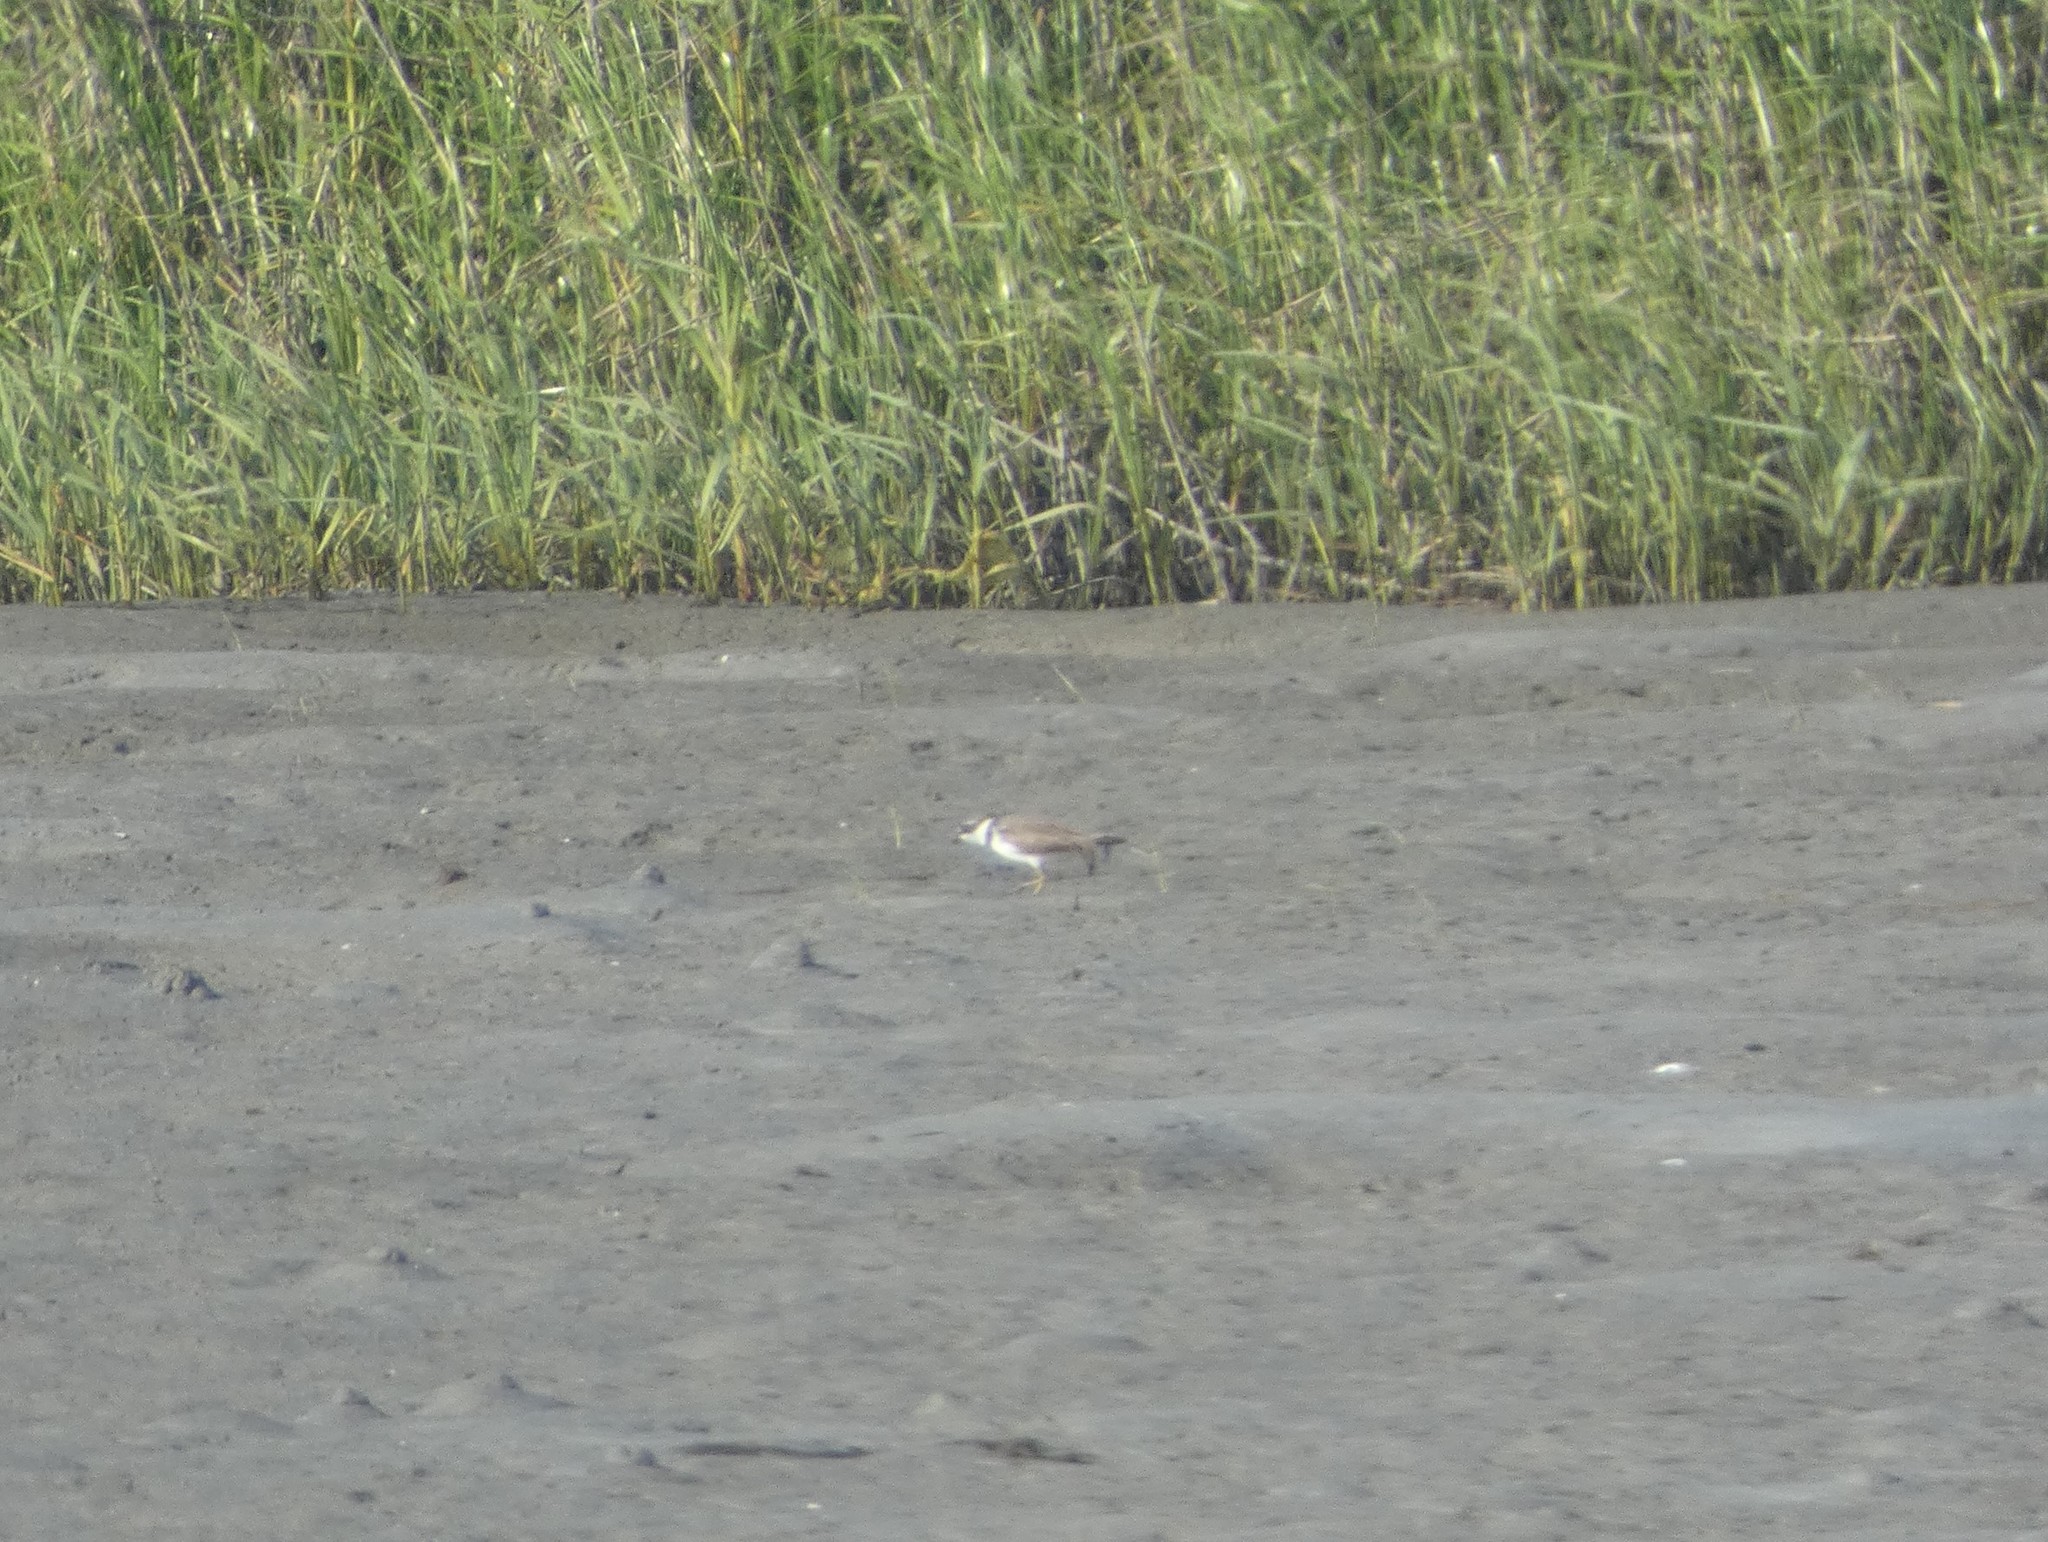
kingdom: Animalia
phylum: Chordata
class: Aves
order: Charadriiformes
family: Charadriidae
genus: Charadrius
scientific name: Charadrius semipalmatus
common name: Semipalmated plover
